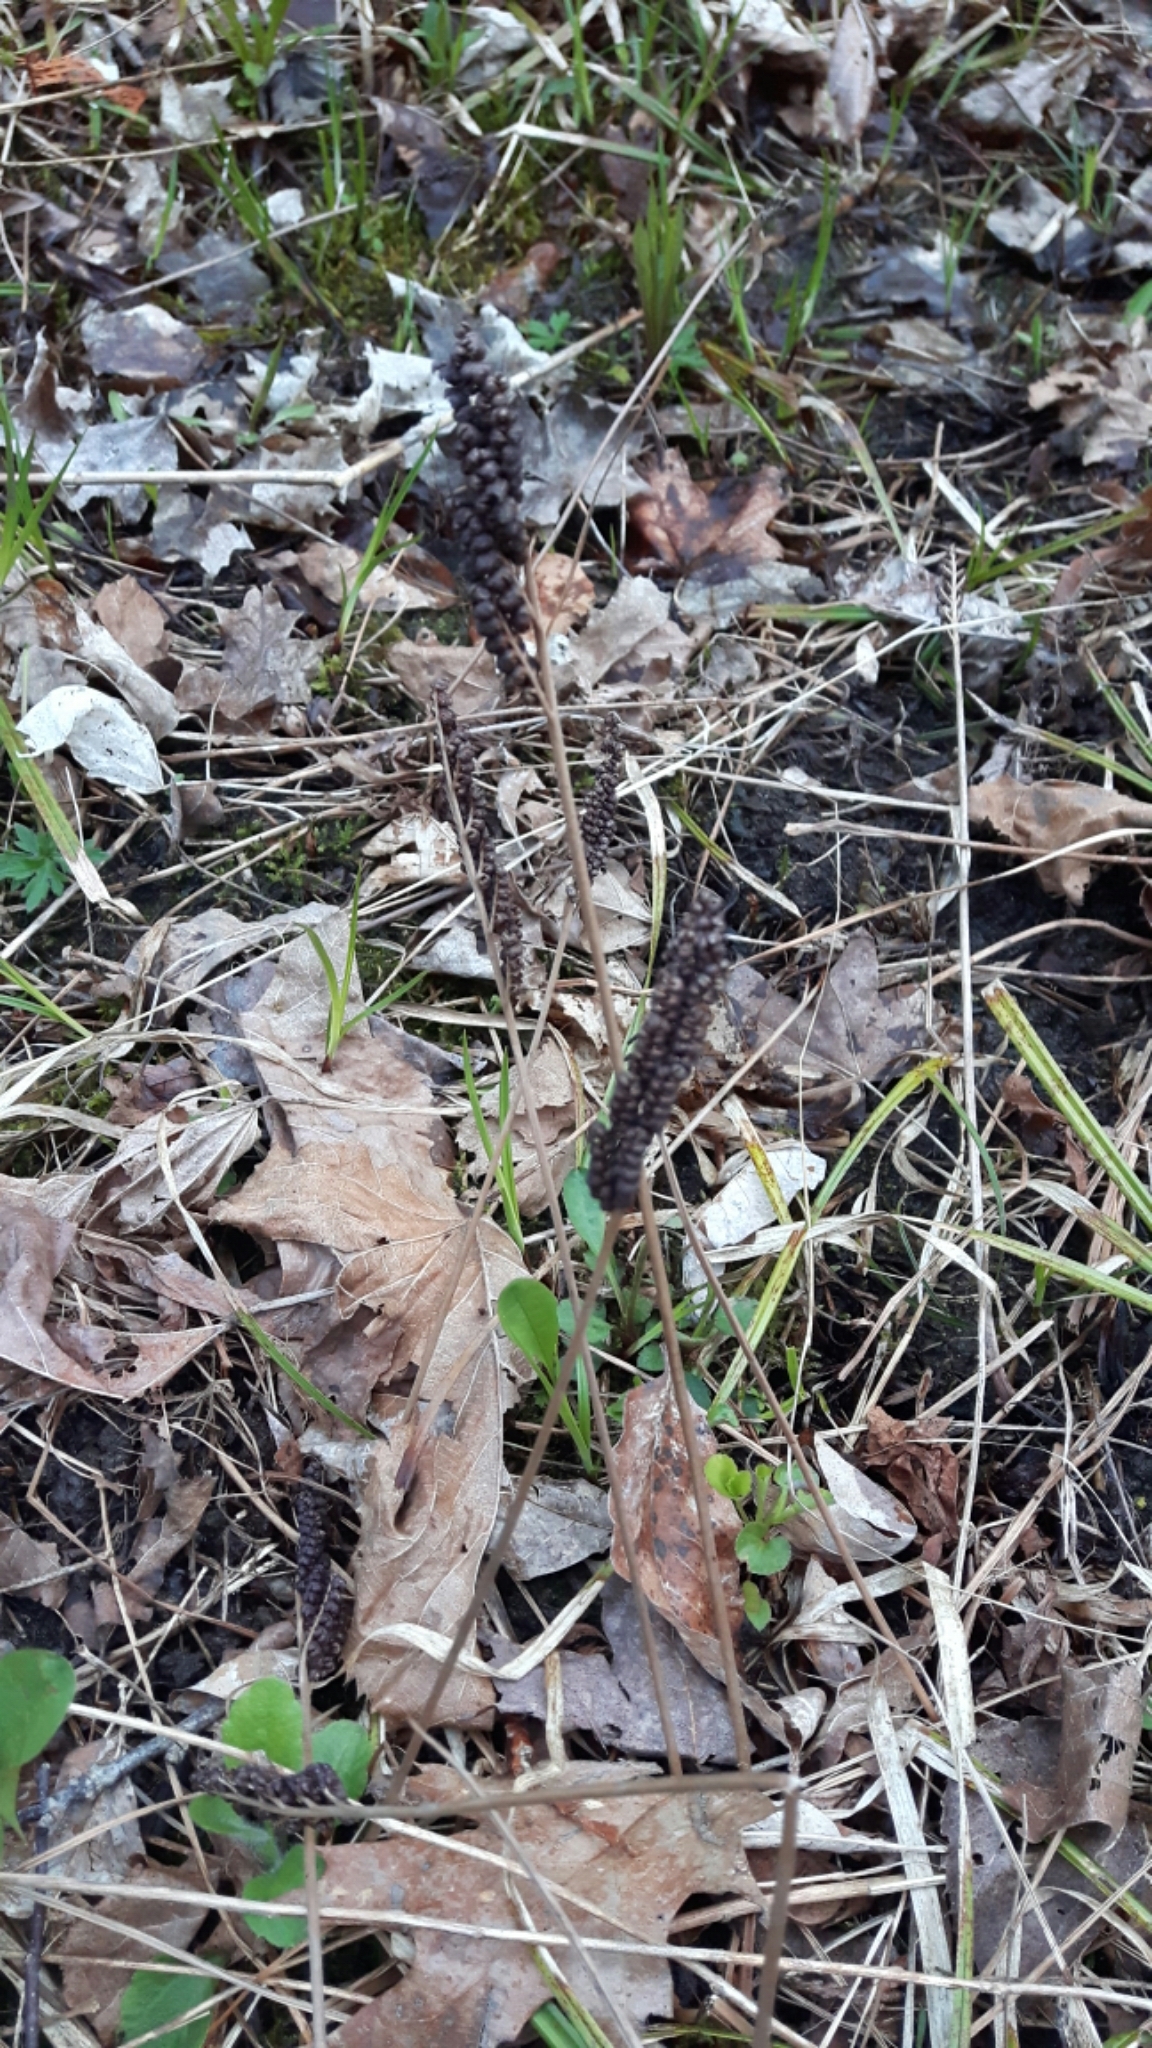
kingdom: Plantae
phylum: Tracheophyta
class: Polypodiopsida
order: Polypodiales
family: Onocleaceae
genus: Onoclea
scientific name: Onoclea sensibilis
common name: Sensitive fern
